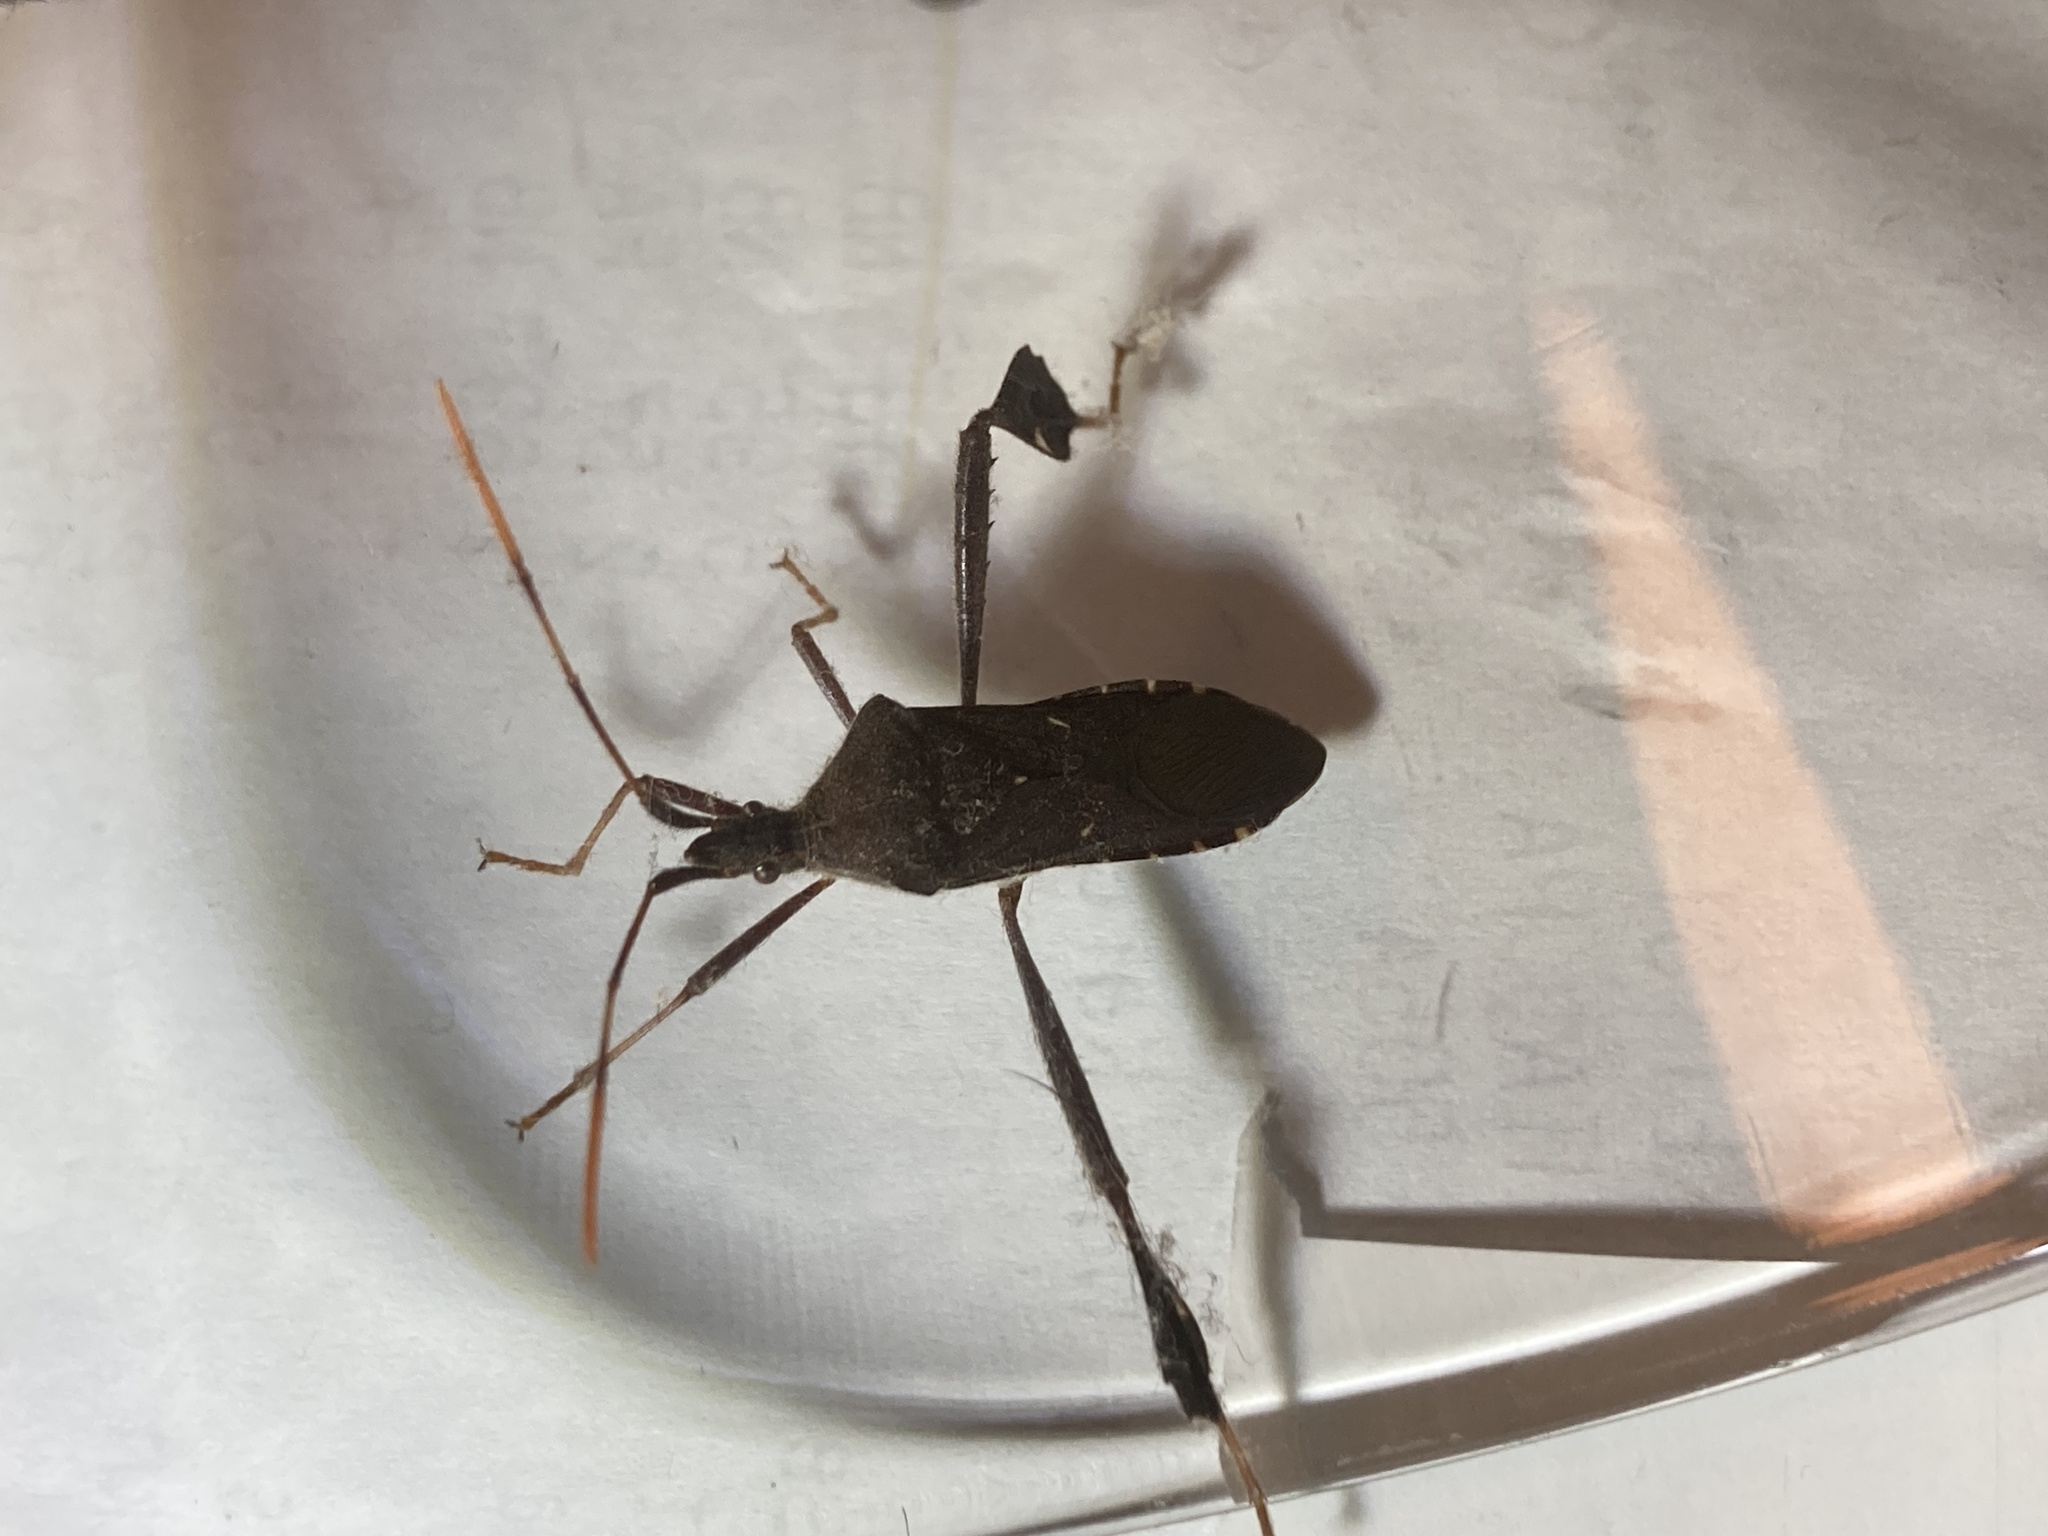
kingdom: Animalia
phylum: Arthropoda
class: Insecta
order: Hemiptera
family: Coreidae
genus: Leptoglossus
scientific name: Leptoglossus oppositus
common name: Northern leaf-footed bug
